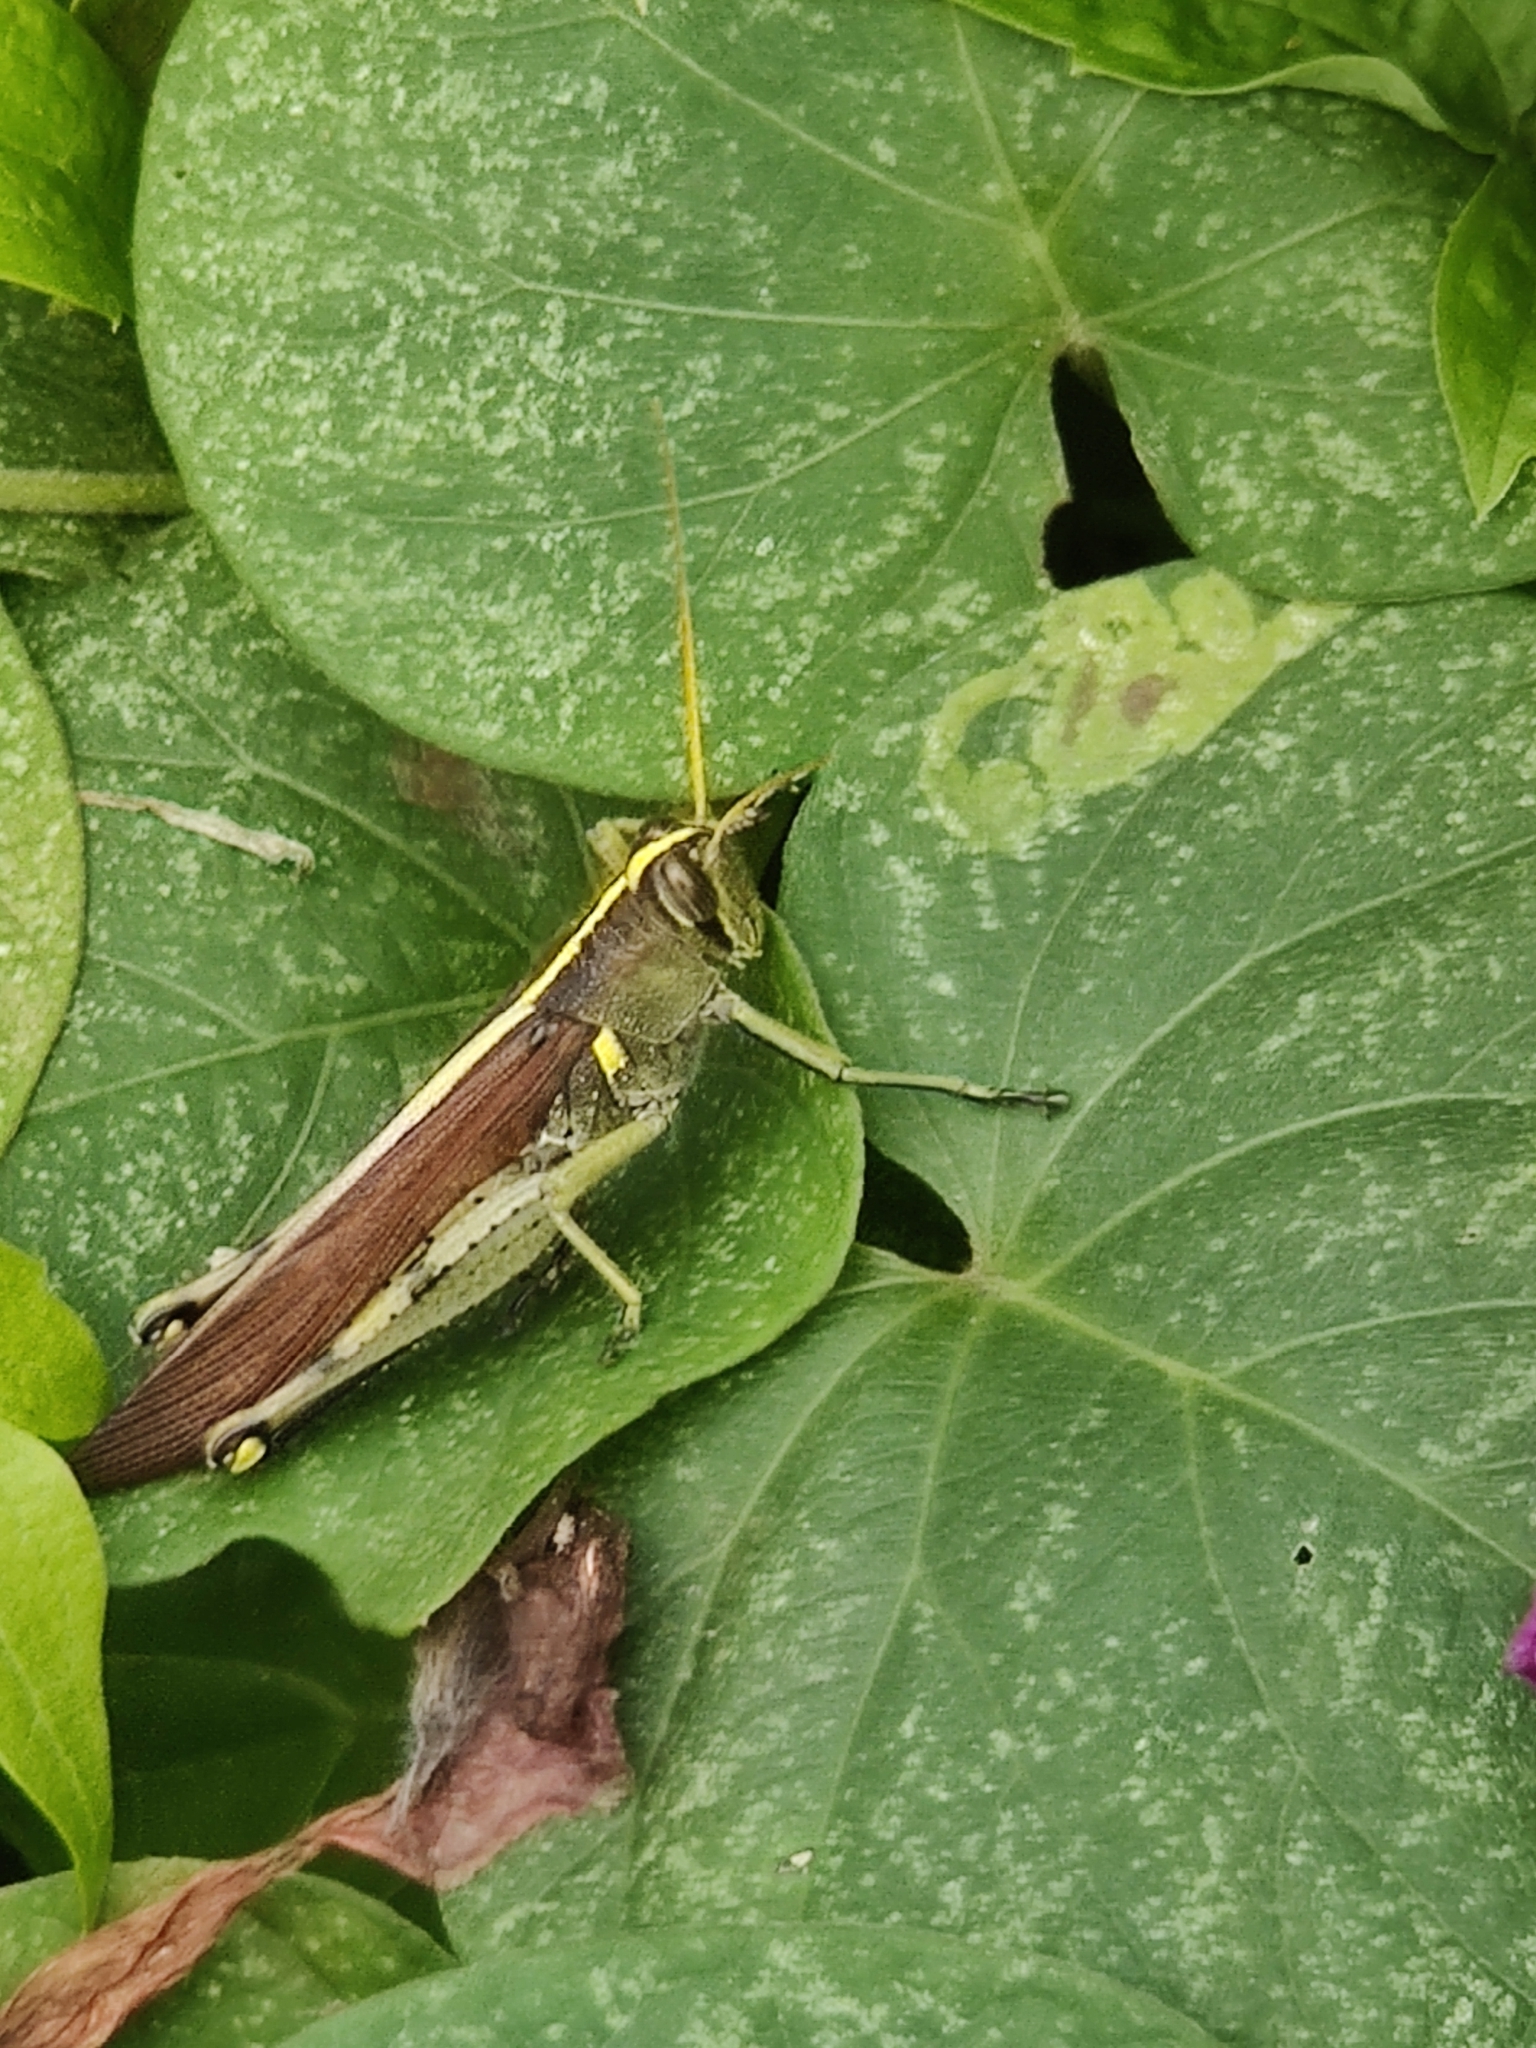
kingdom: Animalia
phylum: Arthropoda
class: Insecta
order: Orthoptera
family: Acrididae
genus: Schistocerca
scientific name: Schistocerca obscura
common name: Obscure bird grasshopper
